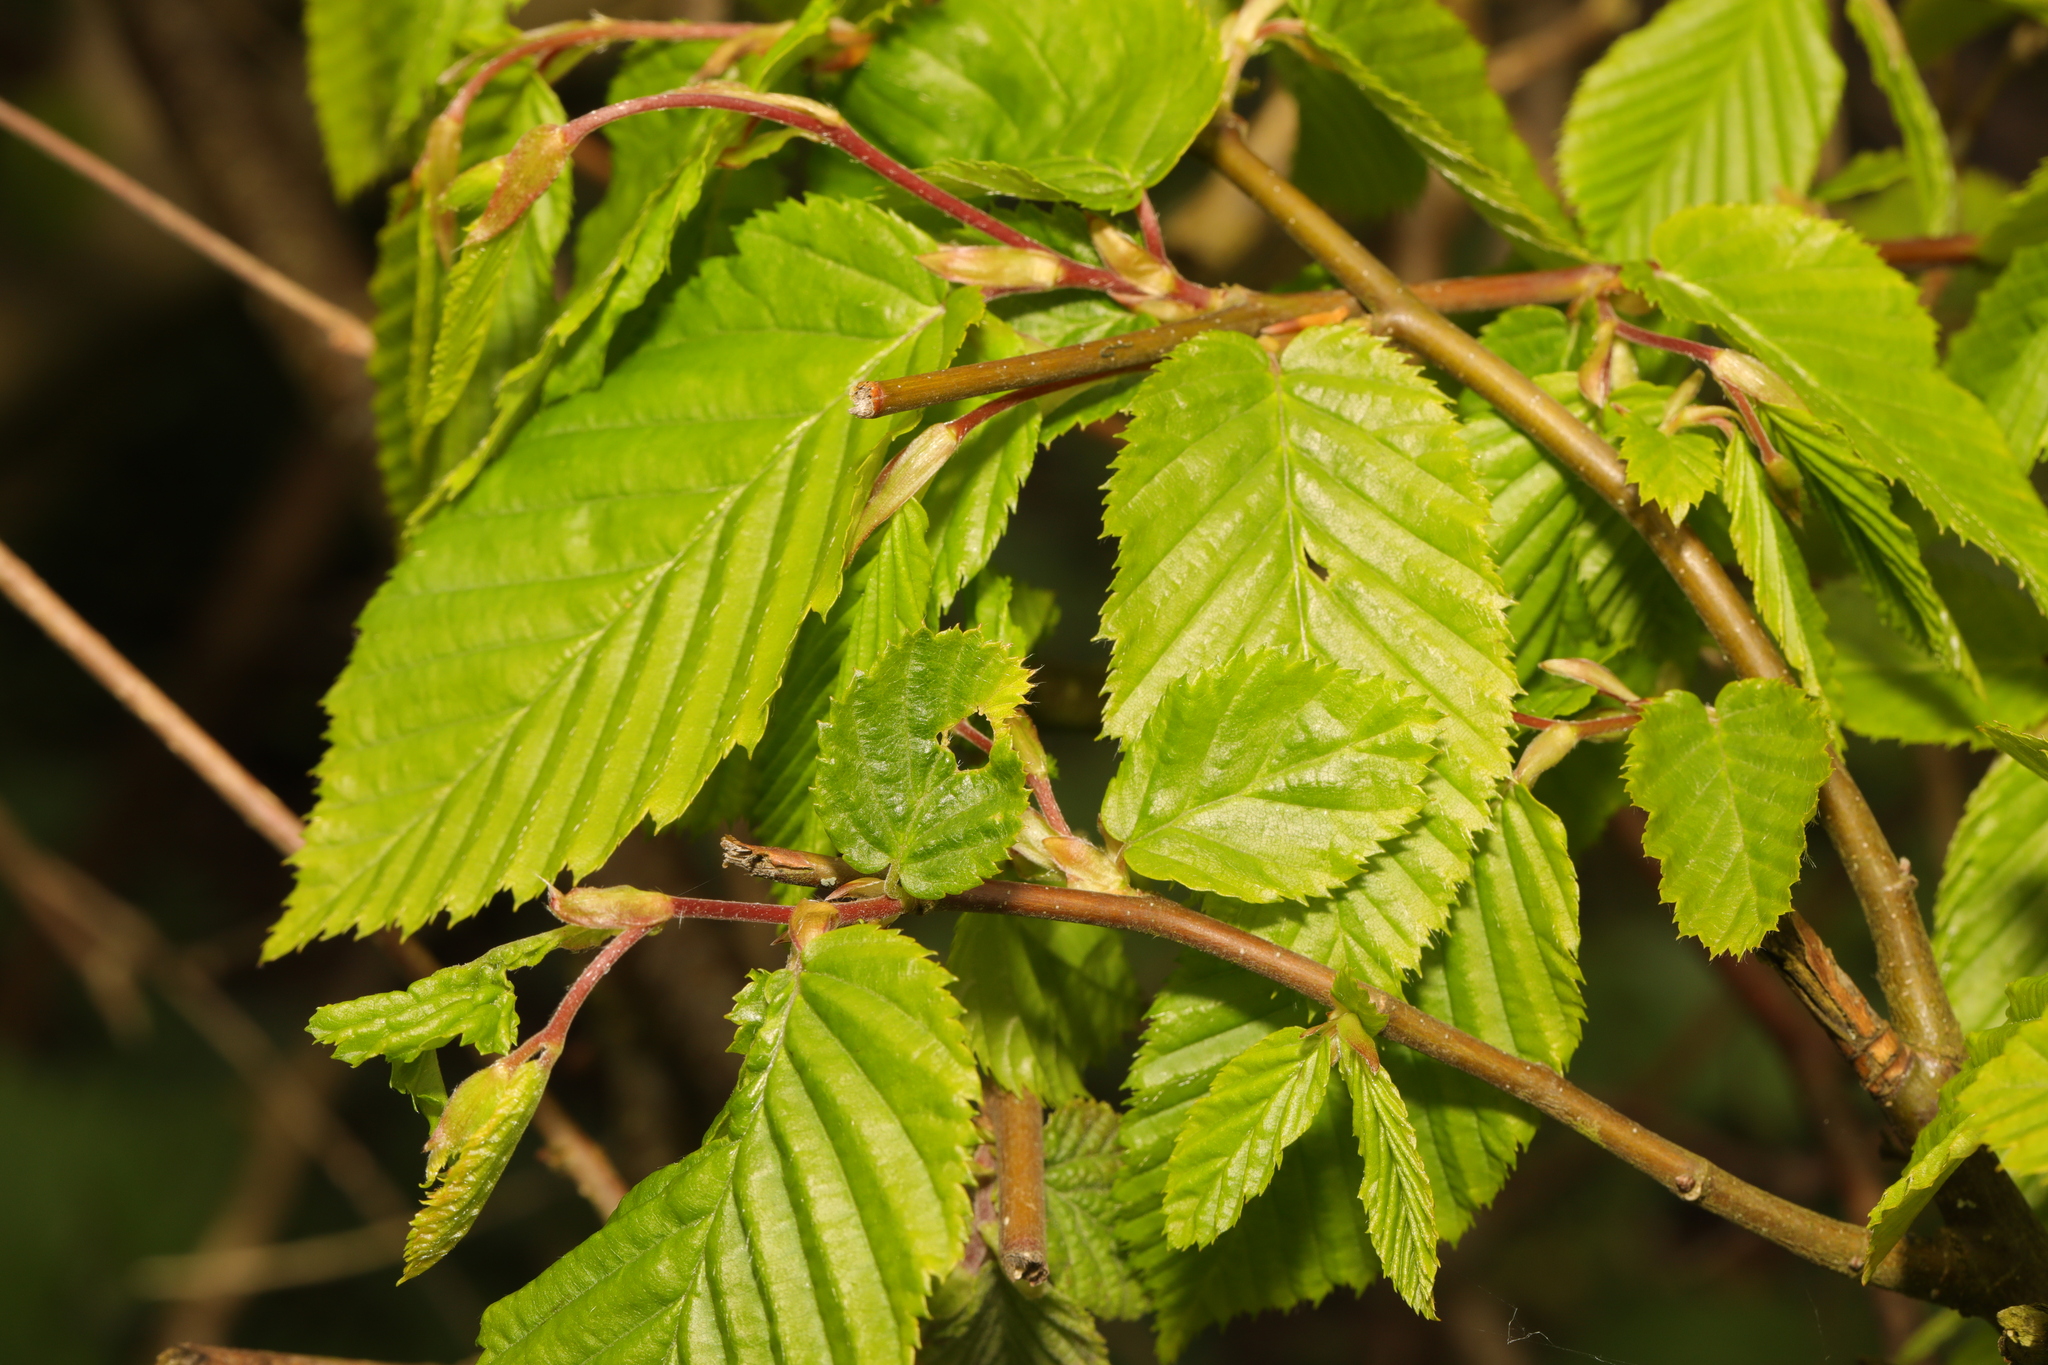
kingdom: Plantae
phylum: Tracheophyta
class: Magnoliopsida
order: Fagales
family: Betulaceae
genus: Carpinus
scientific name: Carpinus betulus
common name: Hornbeam
